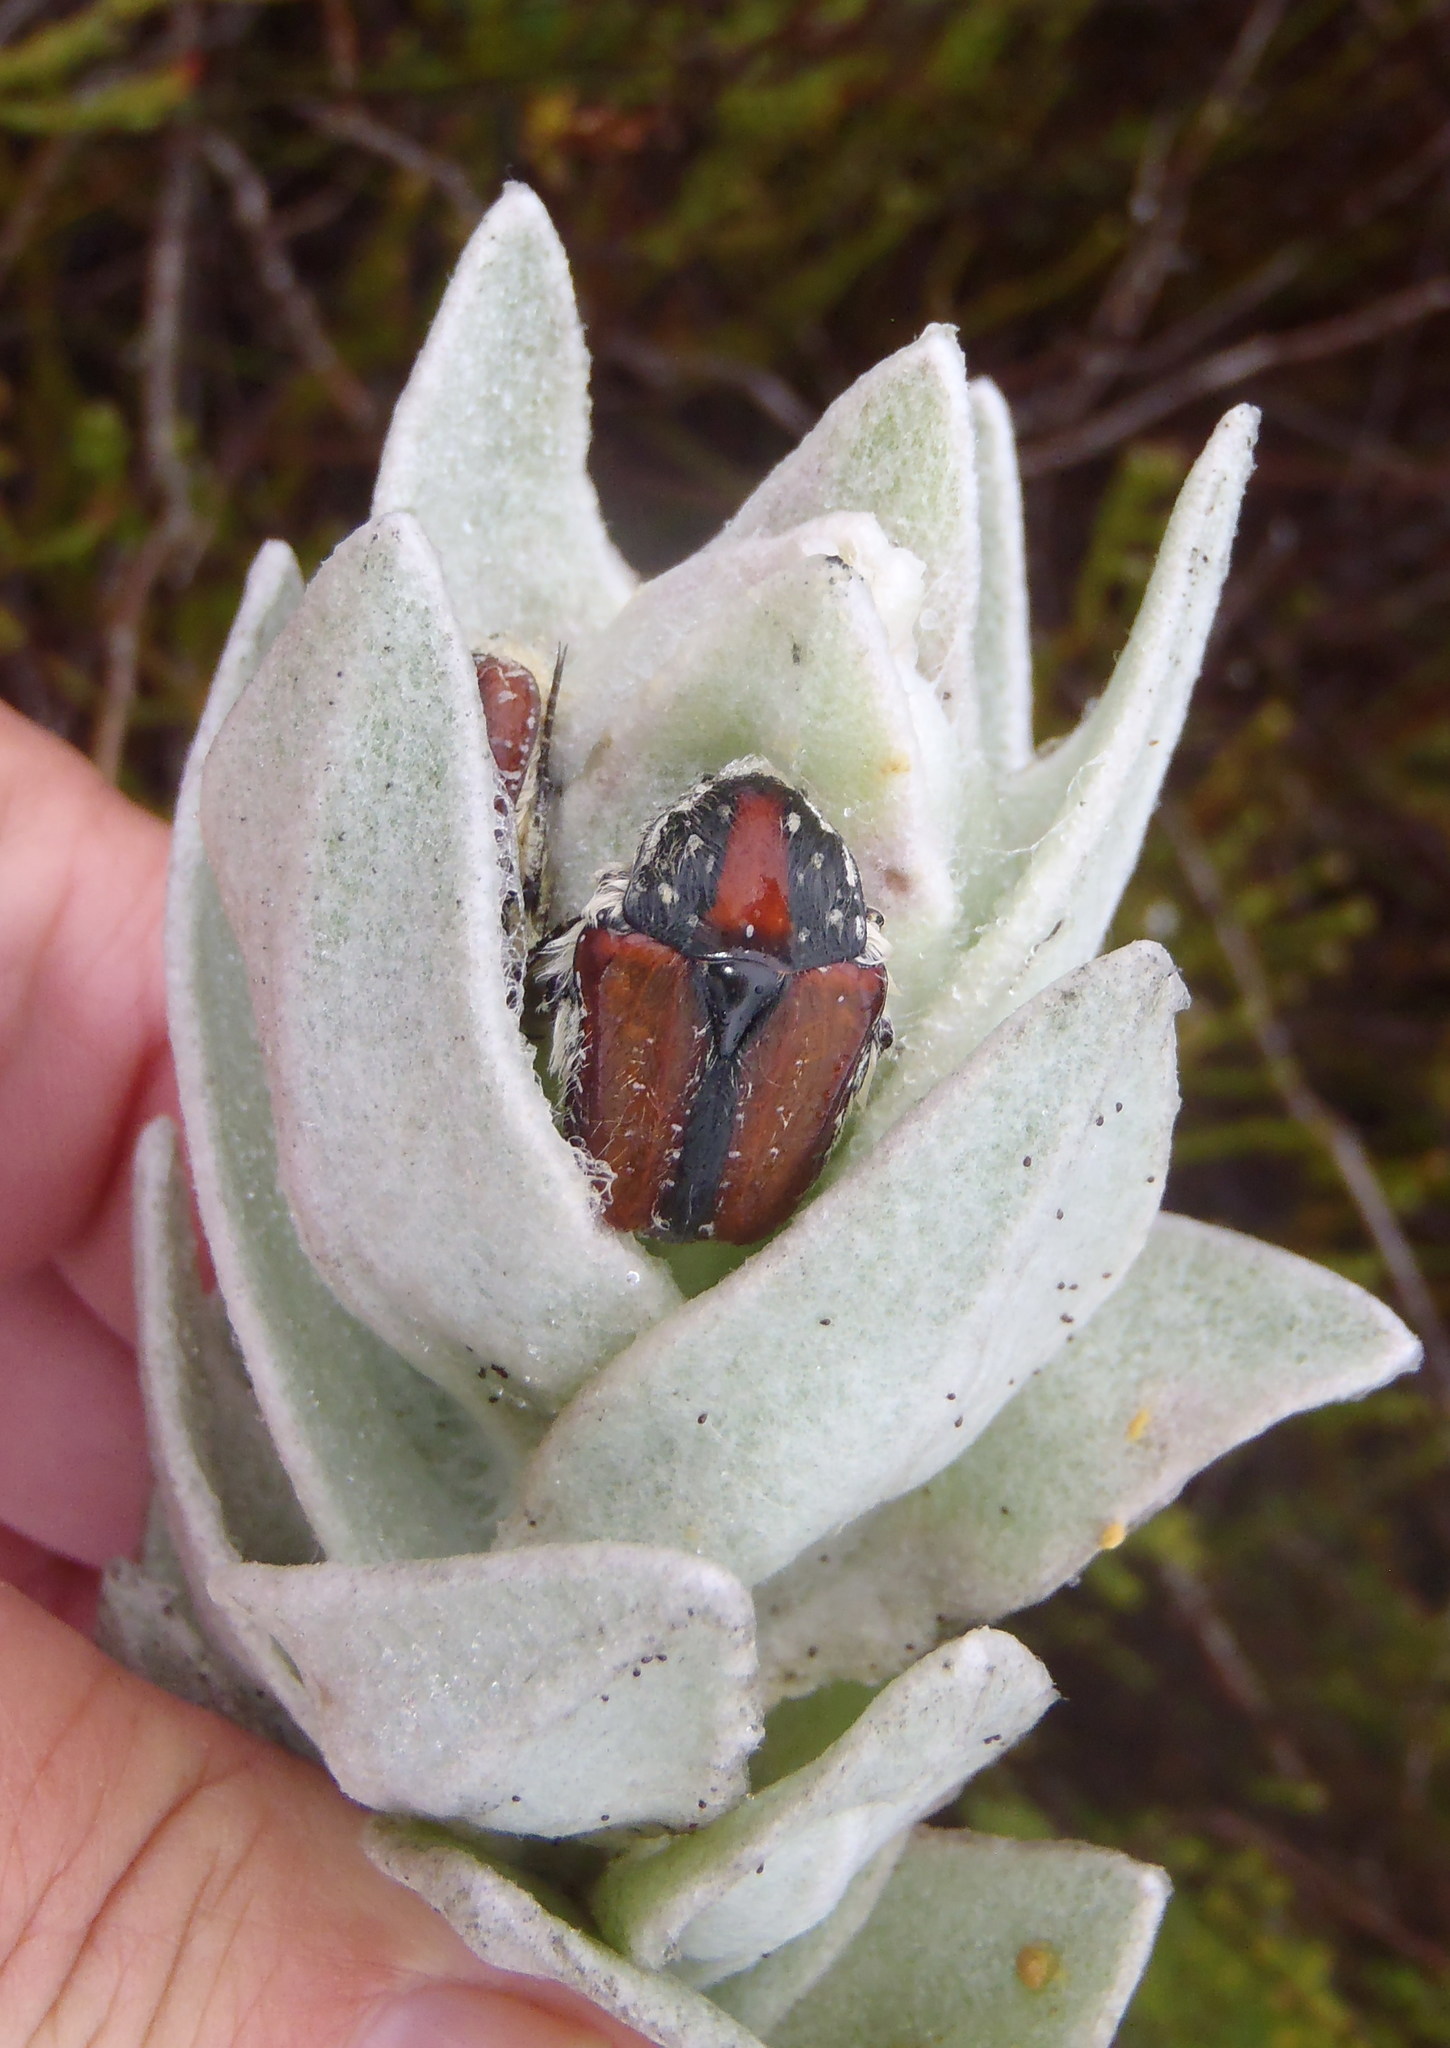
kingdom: Animalia
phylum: Arthropoda
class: Insecta
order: Coleoptera
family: Scarabaeidae
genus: Trichostetha
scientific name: Trichostetha capensis
